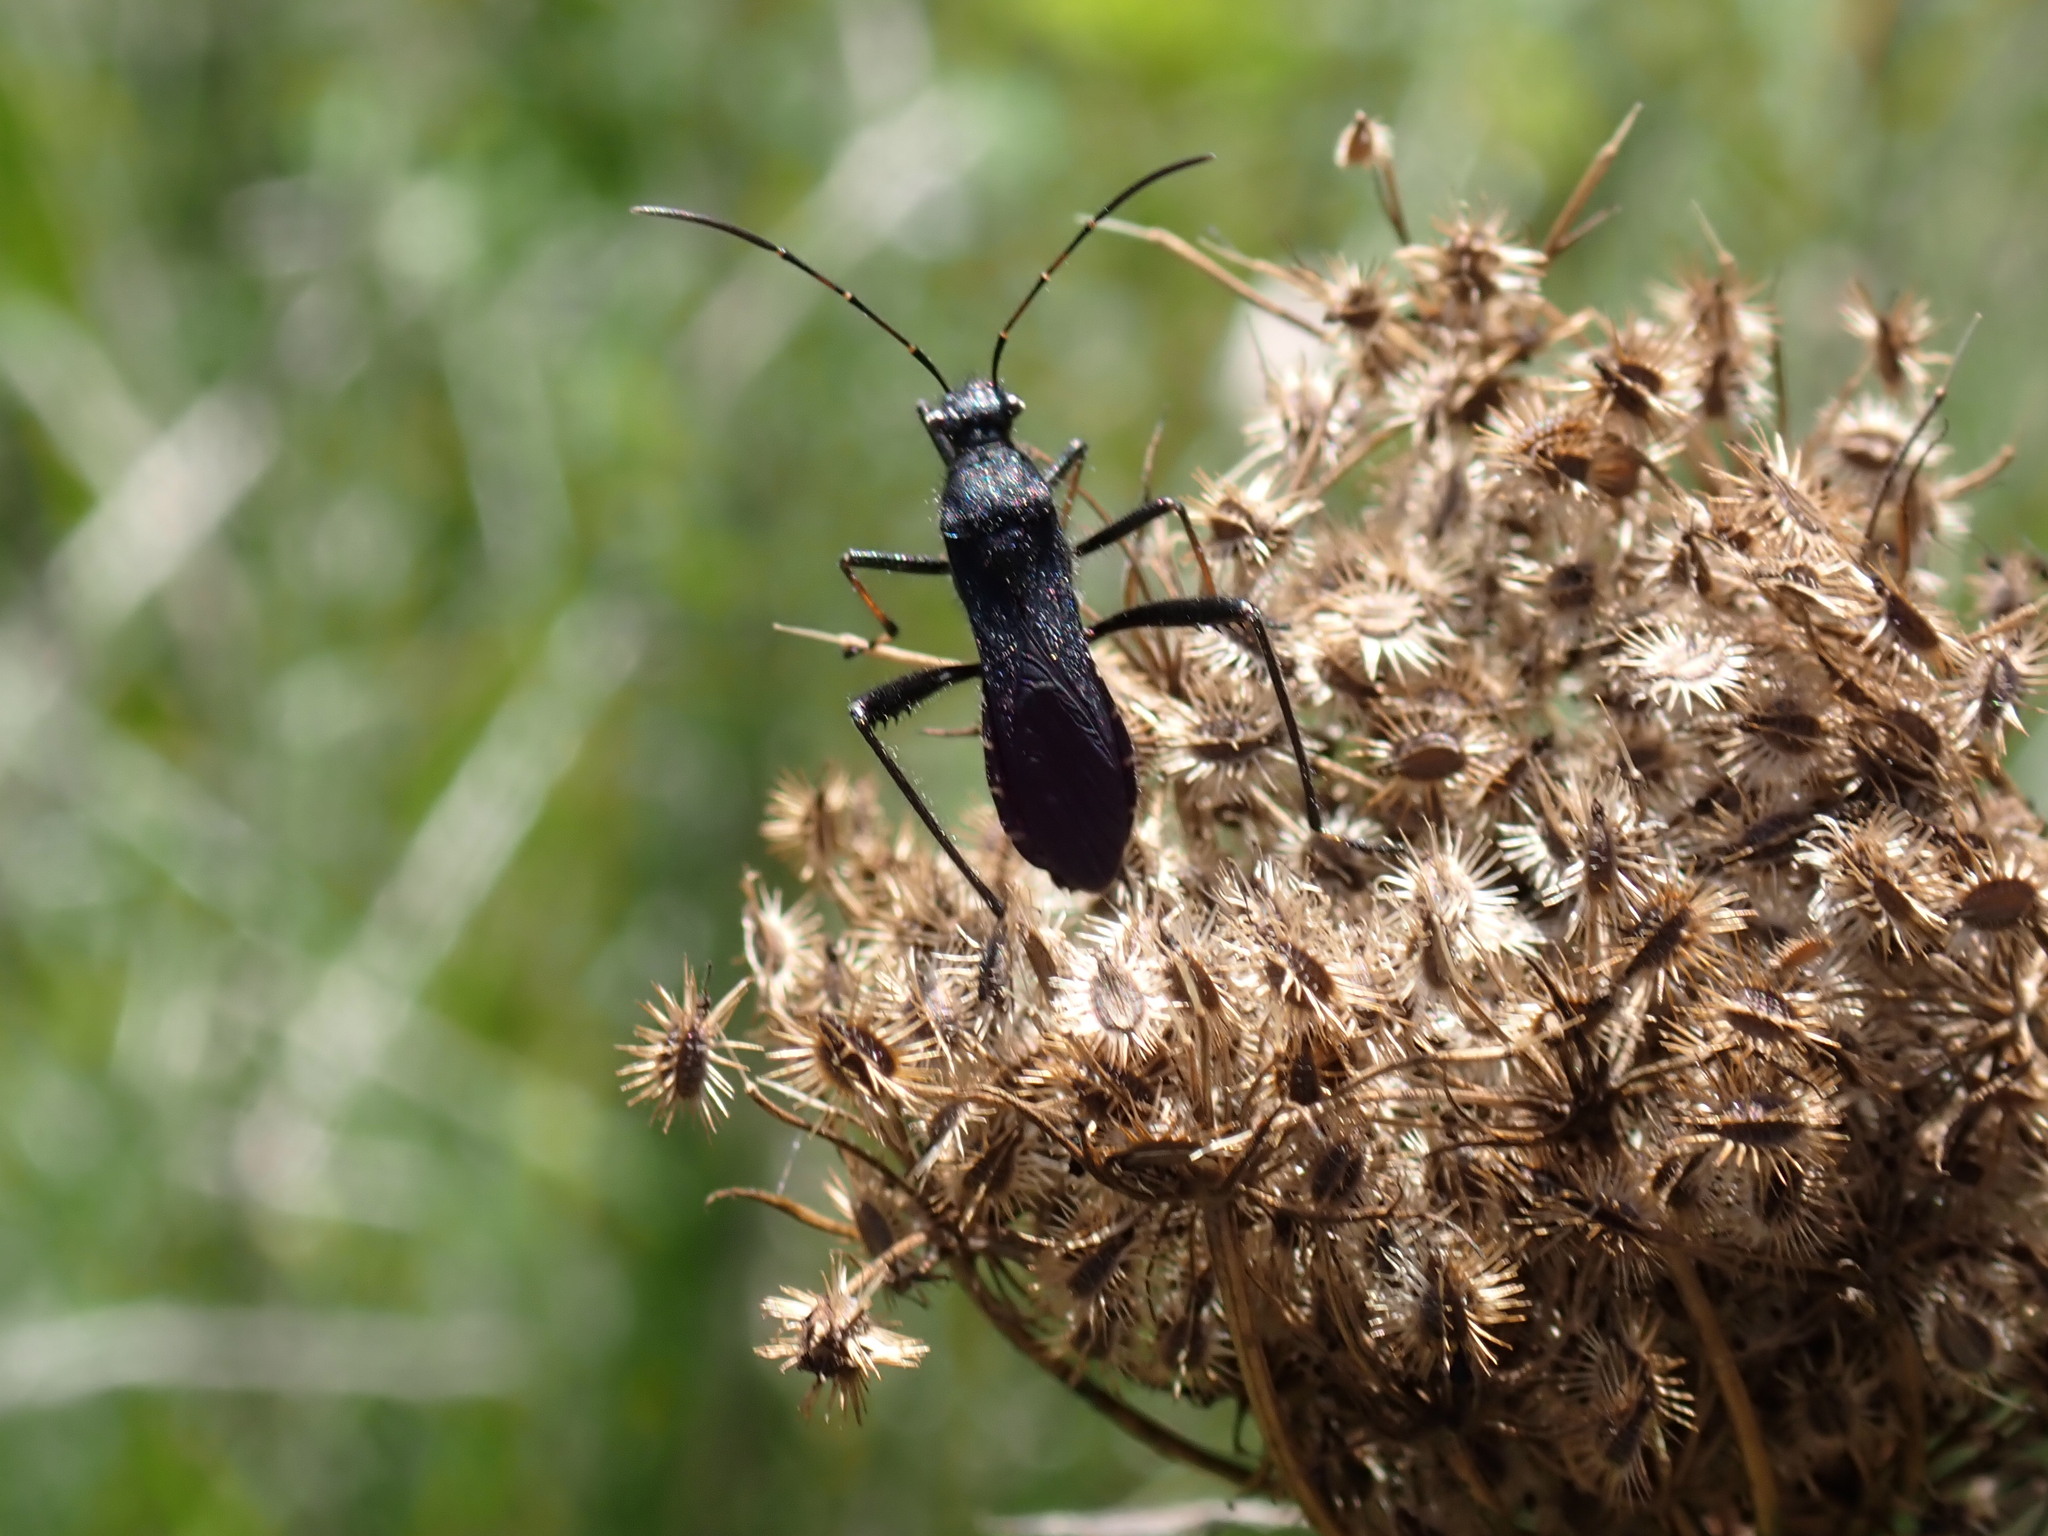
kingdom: Animalia
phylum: Arthropoda
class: Insecta
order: Hemiptera
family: Alydidae
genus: Alydus
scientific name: Alydus eurinus
